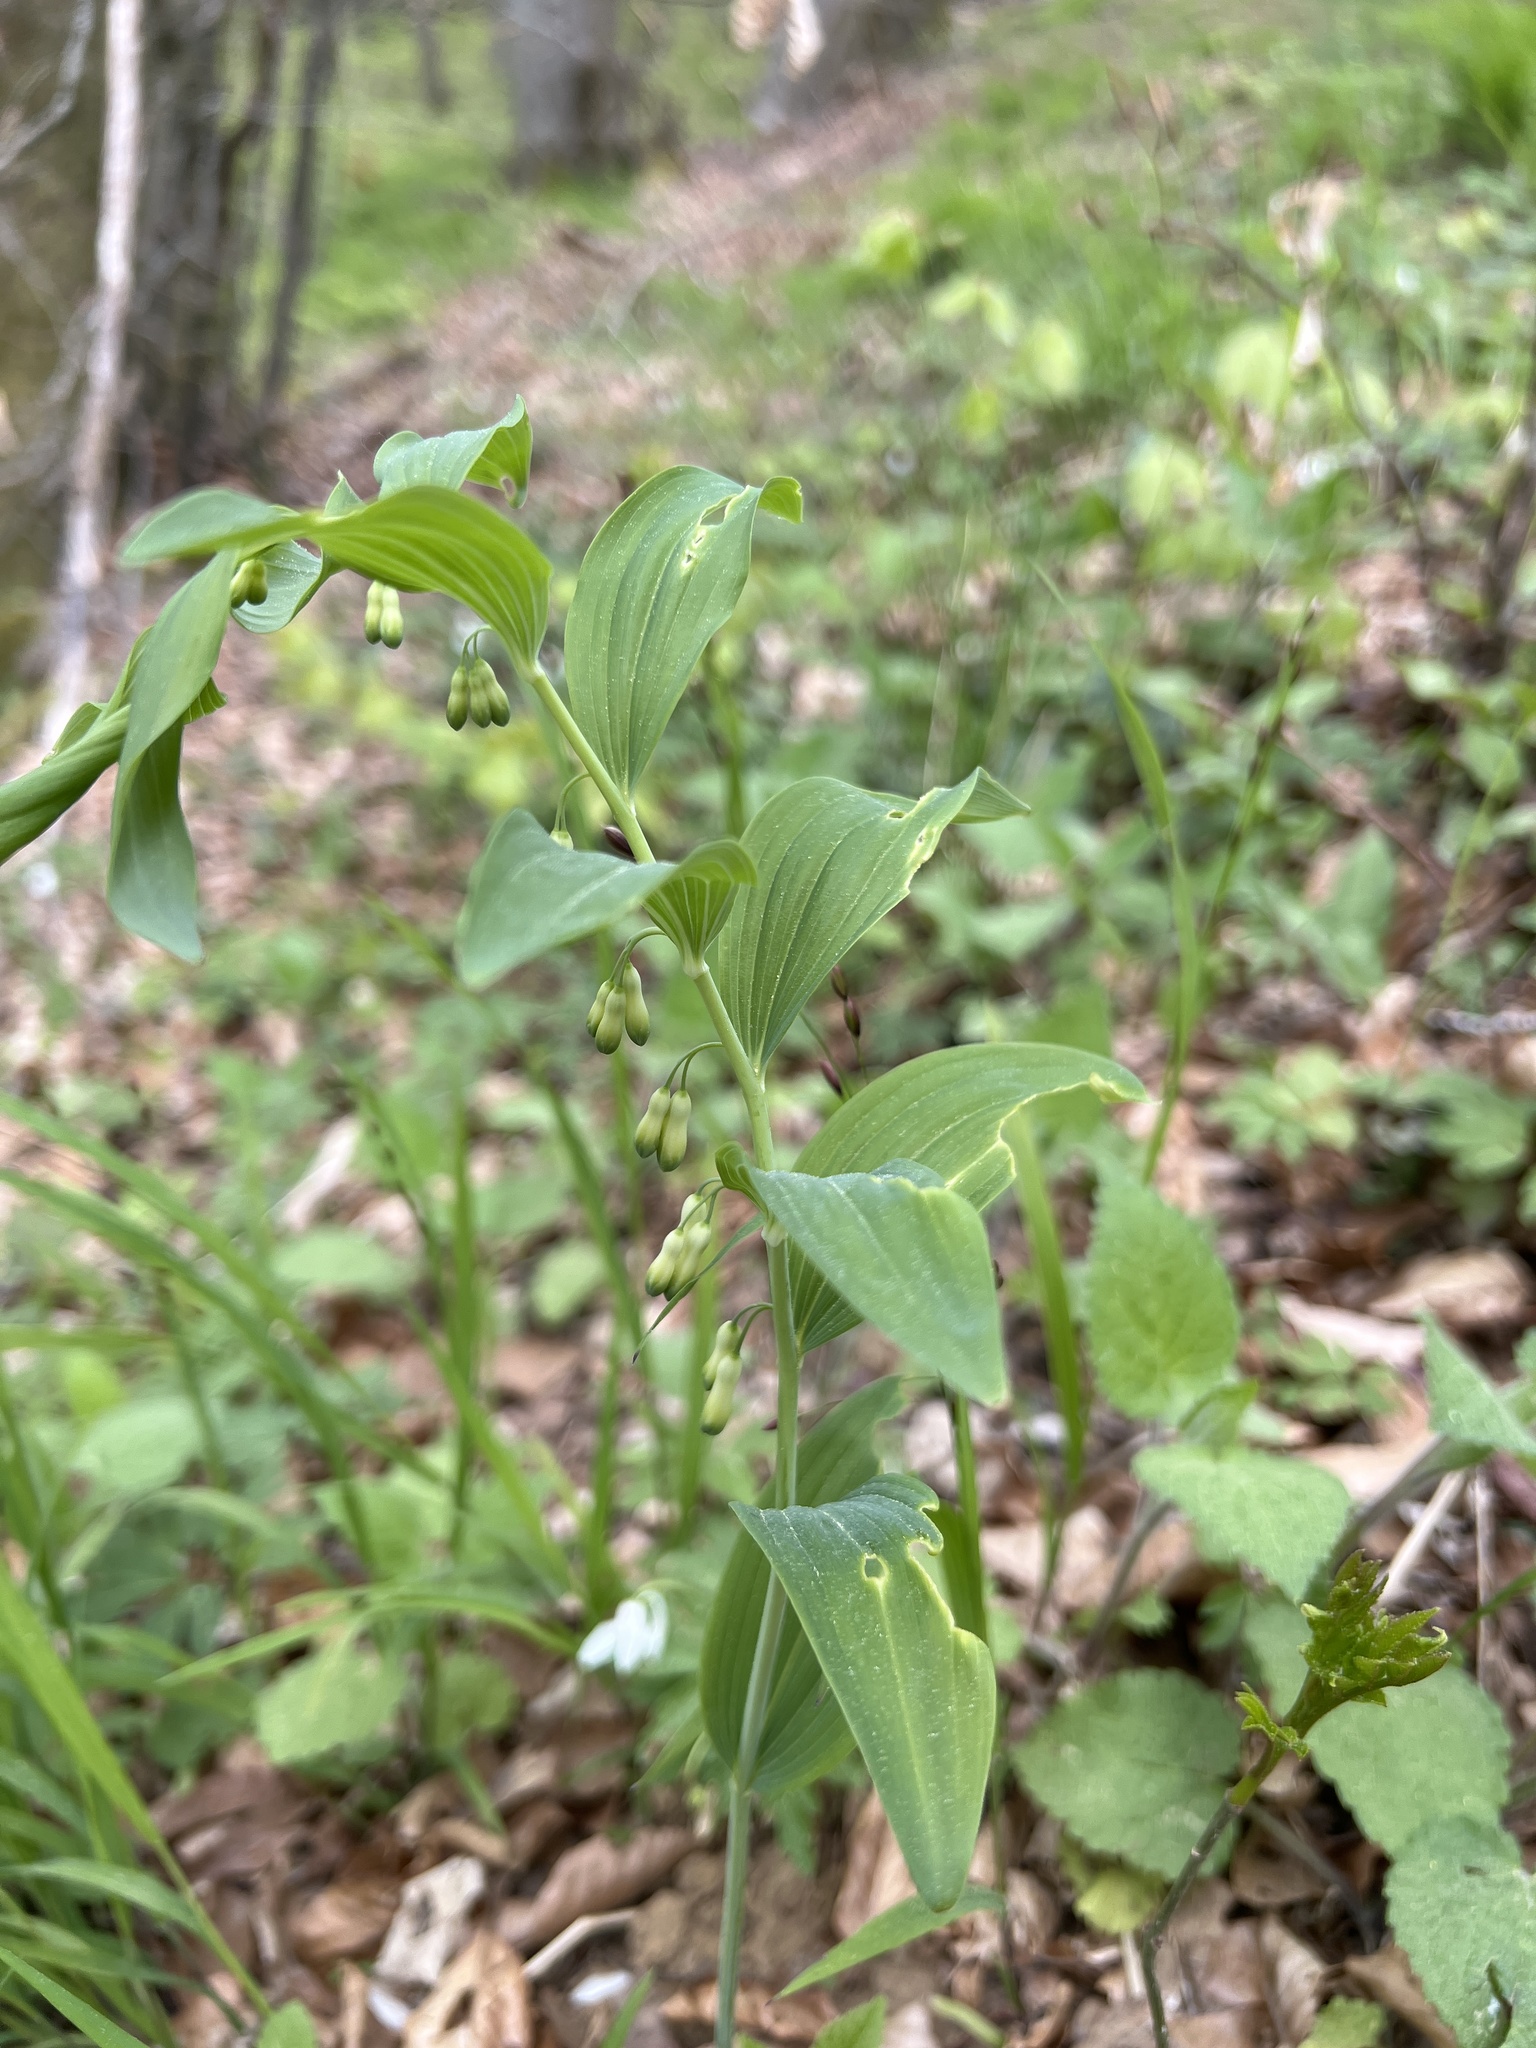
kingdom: Plantae
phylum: Tracheophyta
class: Liliopsida
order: Asparagales
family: Asparagaceae
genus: Polygonatum
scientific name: Polygonatum multiflorum
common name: Solomon's-seal
